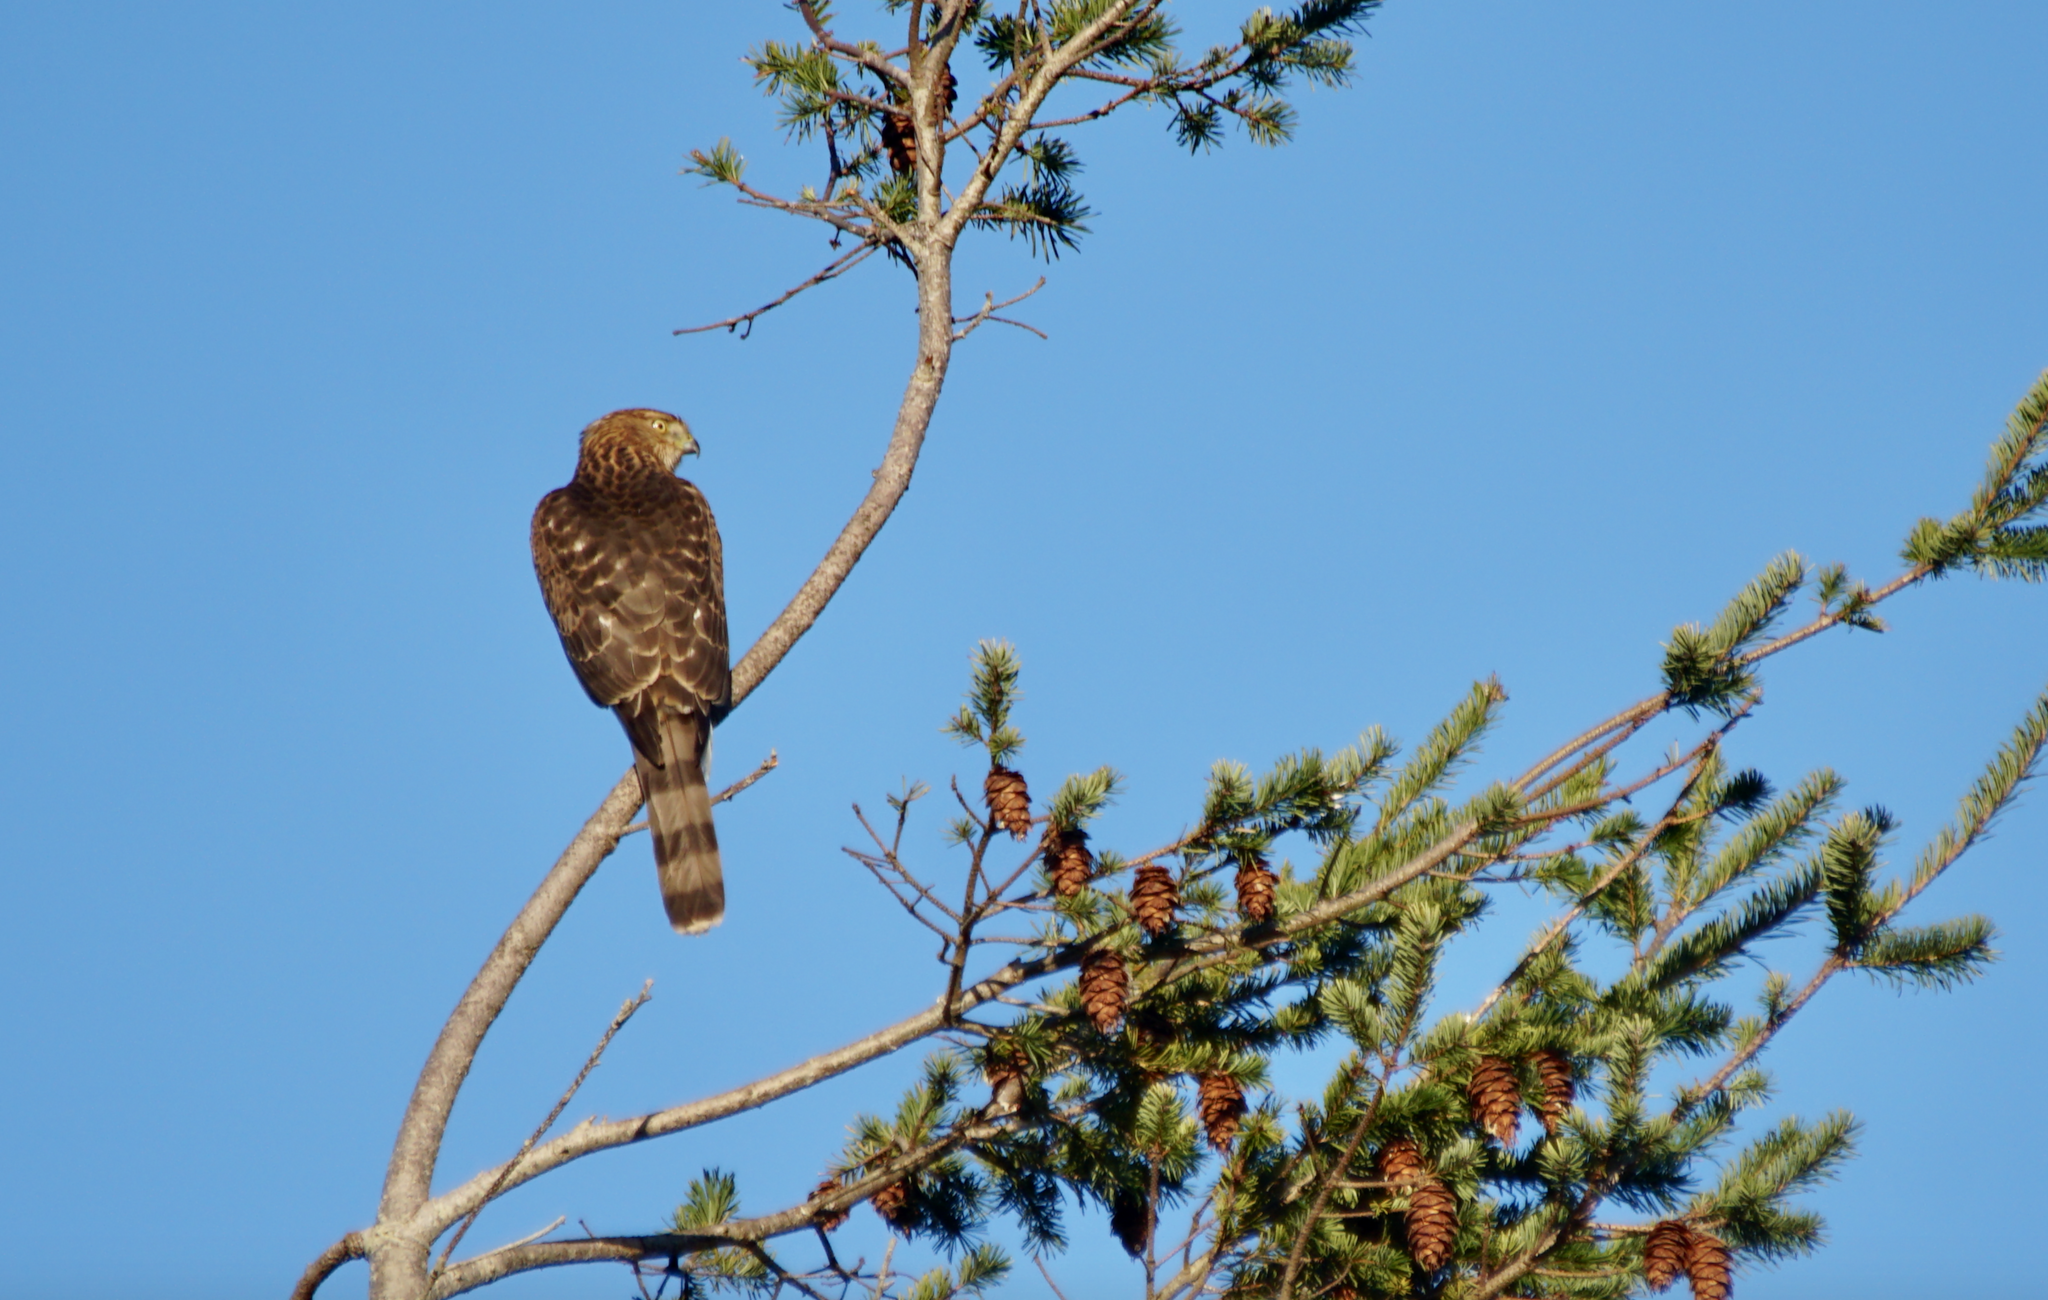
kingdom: Animalia
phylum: Chordata
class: Aves
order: Accipitriformes
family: Accipitridae
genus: Accipiter
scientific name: Accipiter cooperii
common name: Cooper's hawk
